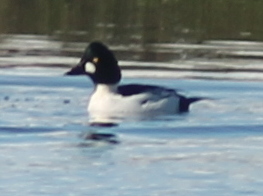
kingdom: Animalia
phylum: Chordata
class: Aves
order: Anseriformes
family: Anatidae
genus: Bucephala
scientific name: Bucephala clangula
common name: Common goldeneye
